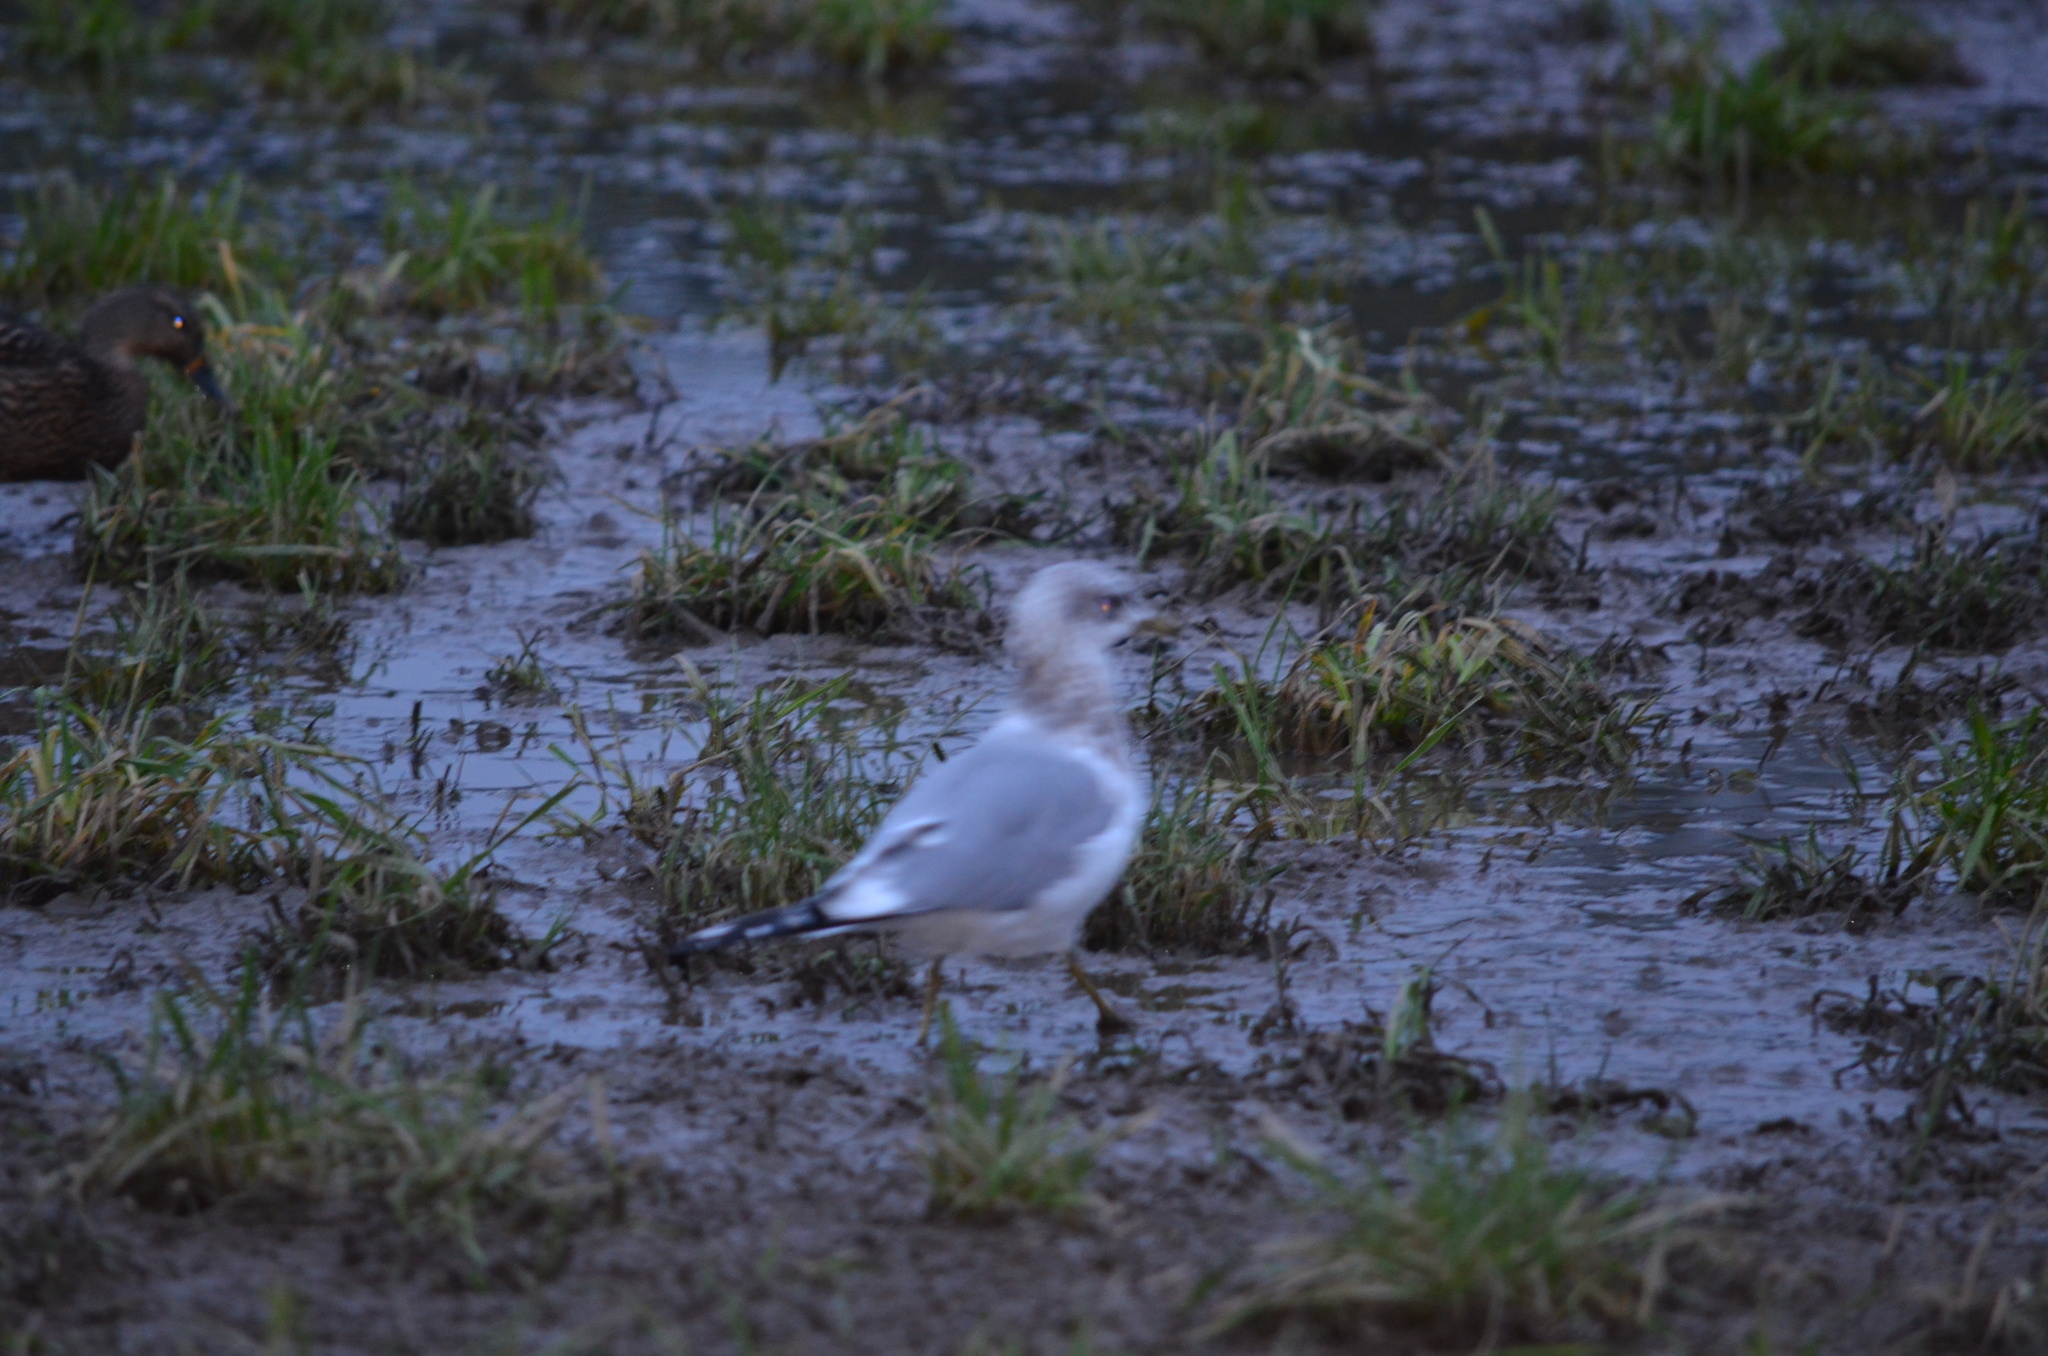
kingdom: Animalia
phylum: Chordata
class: Aves
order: Charadriiformes
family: Laridae
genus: Larus
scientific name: Larus brachyrhynchus
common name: Short-billed gull
